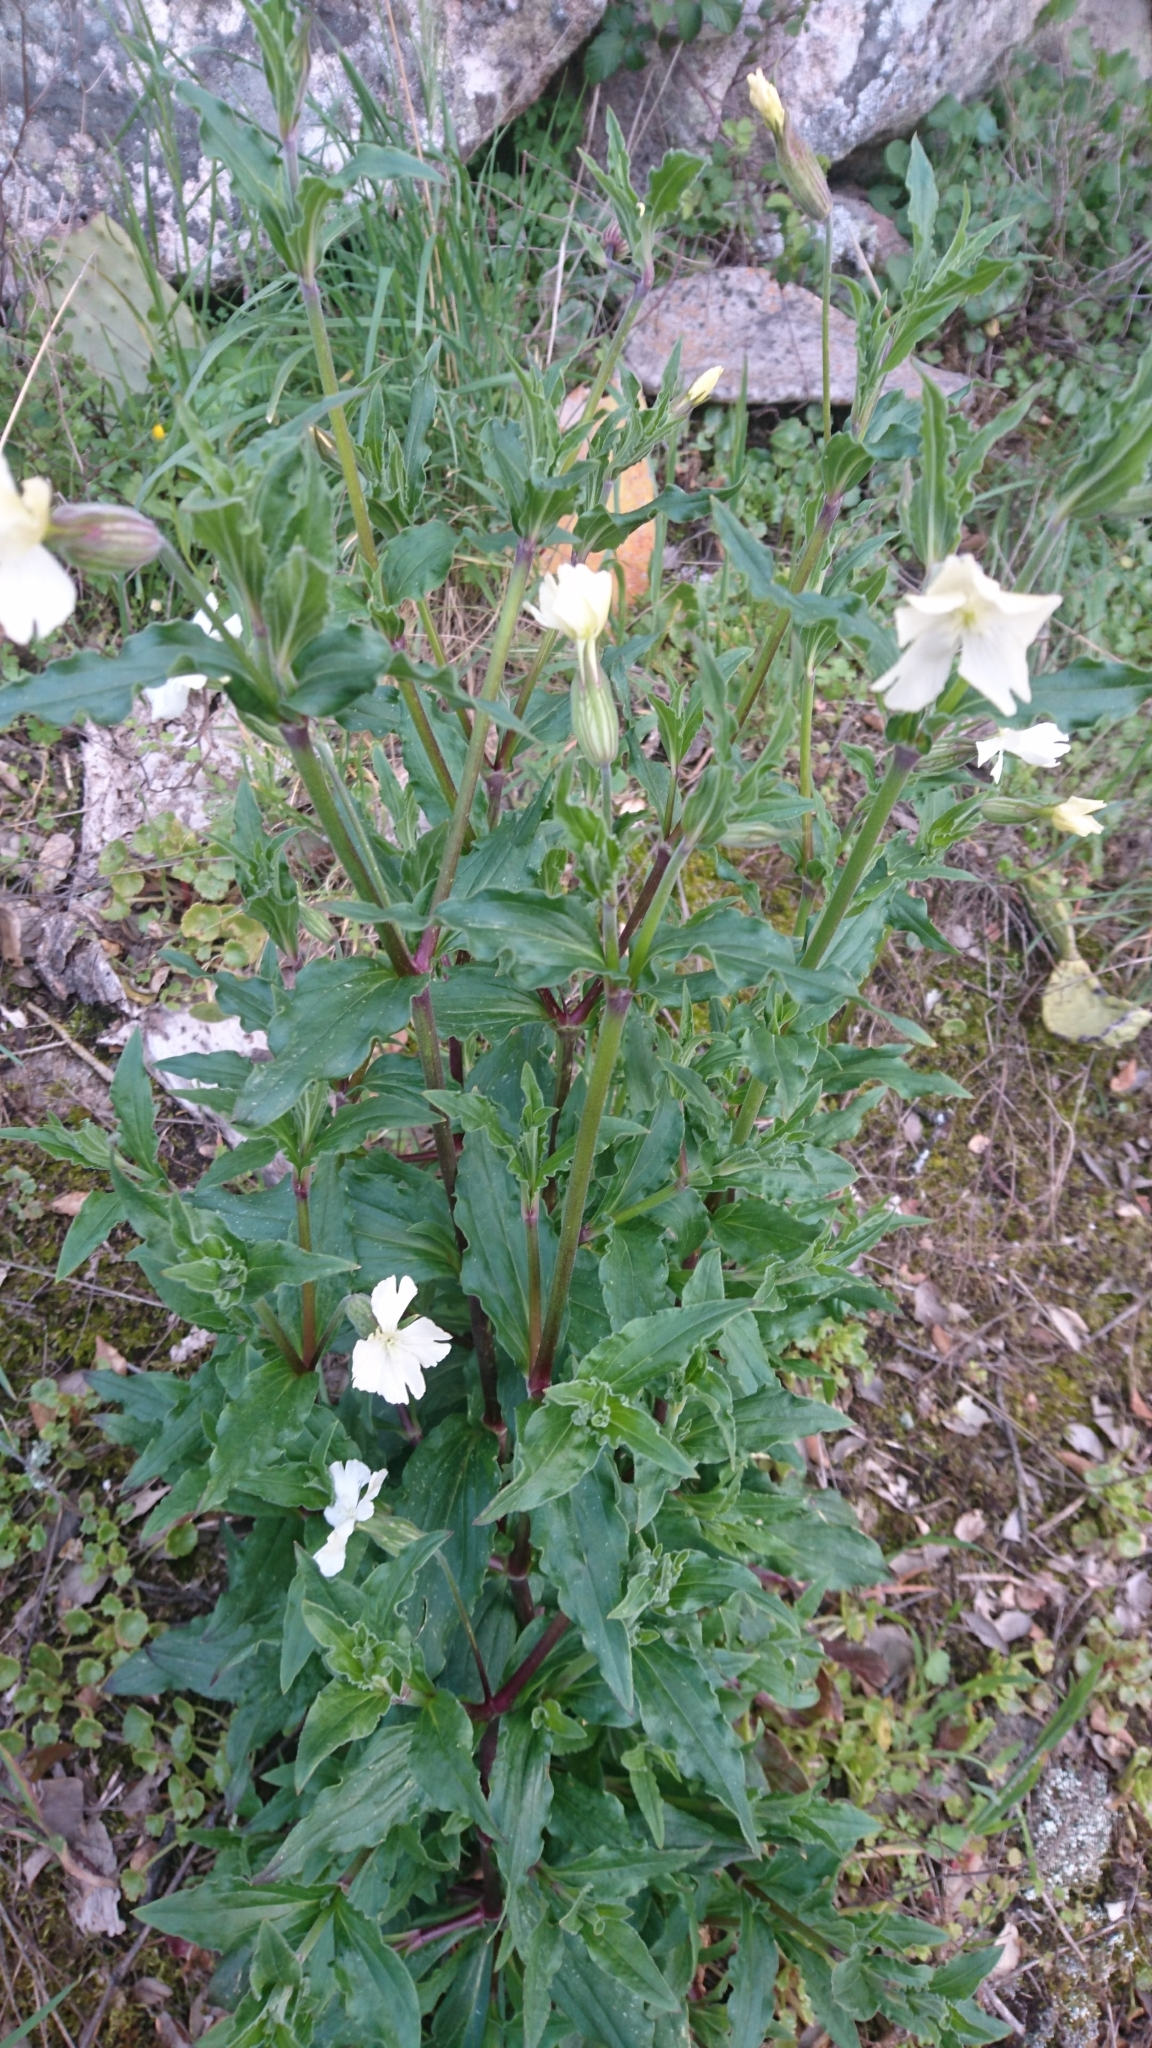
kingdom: Plantae
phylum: Tracheophyta
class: Magnoliopsida
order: Caryophyllales
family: Caryophyllaceae
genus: Silene
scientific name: Silene latifolia
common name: White campion
